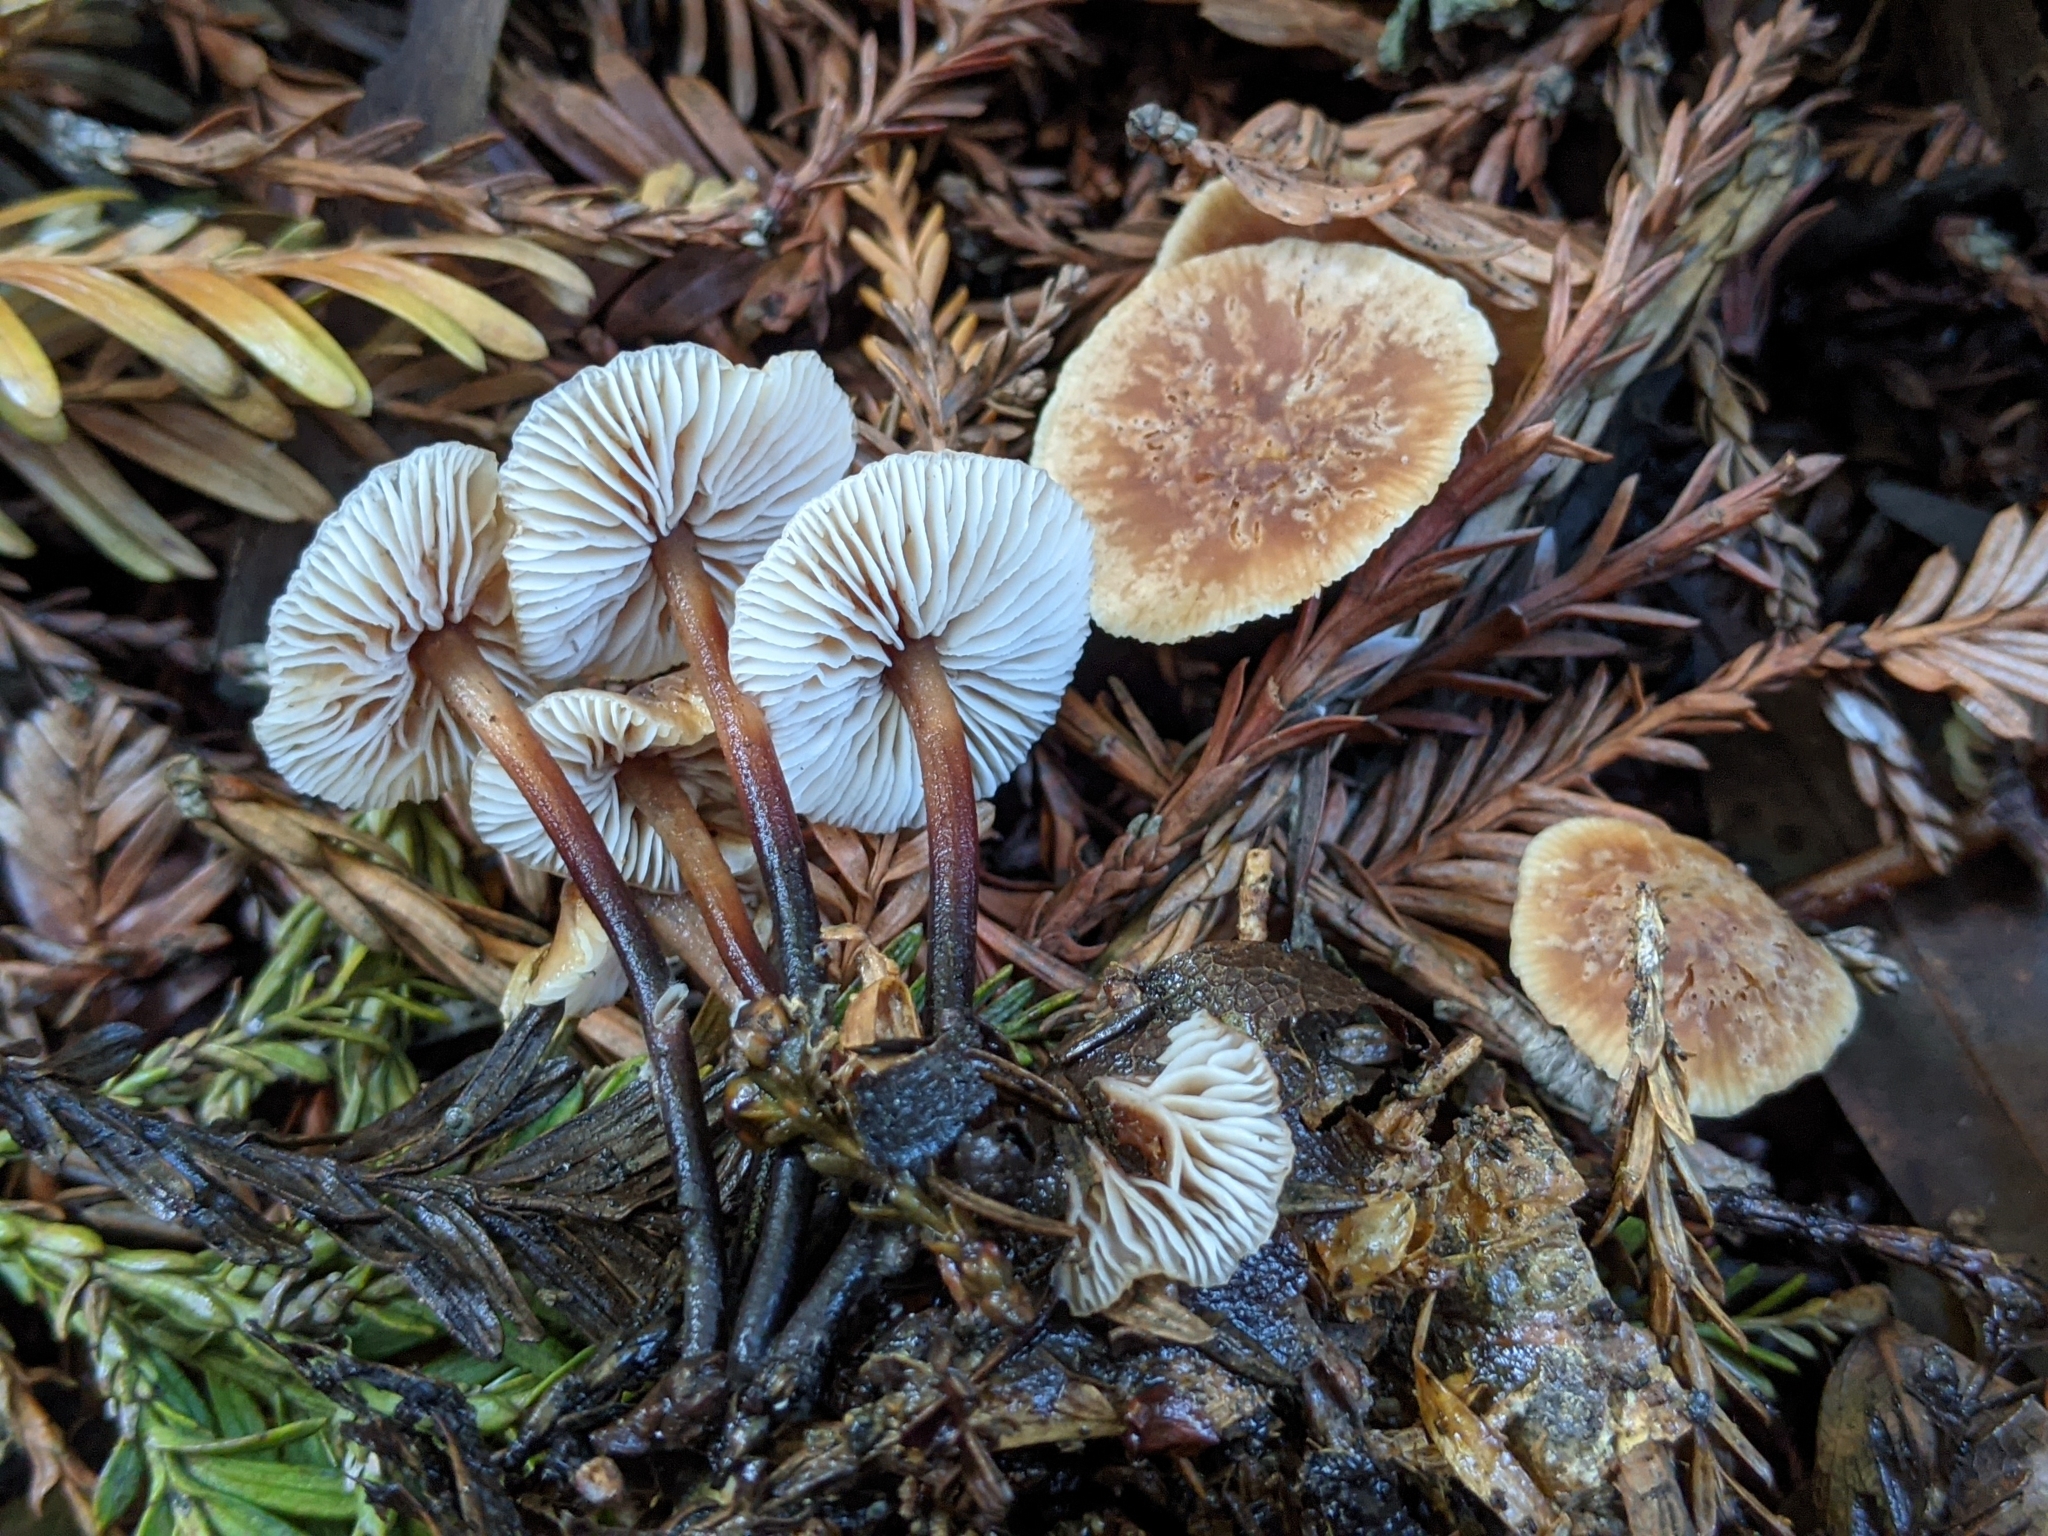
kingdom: Fungi
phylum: Basidiomycota
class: Agaricomycetes
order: Agaricales
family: Omphalotaceae
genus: Gymnopus
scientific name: Gymnopus brassicolens
